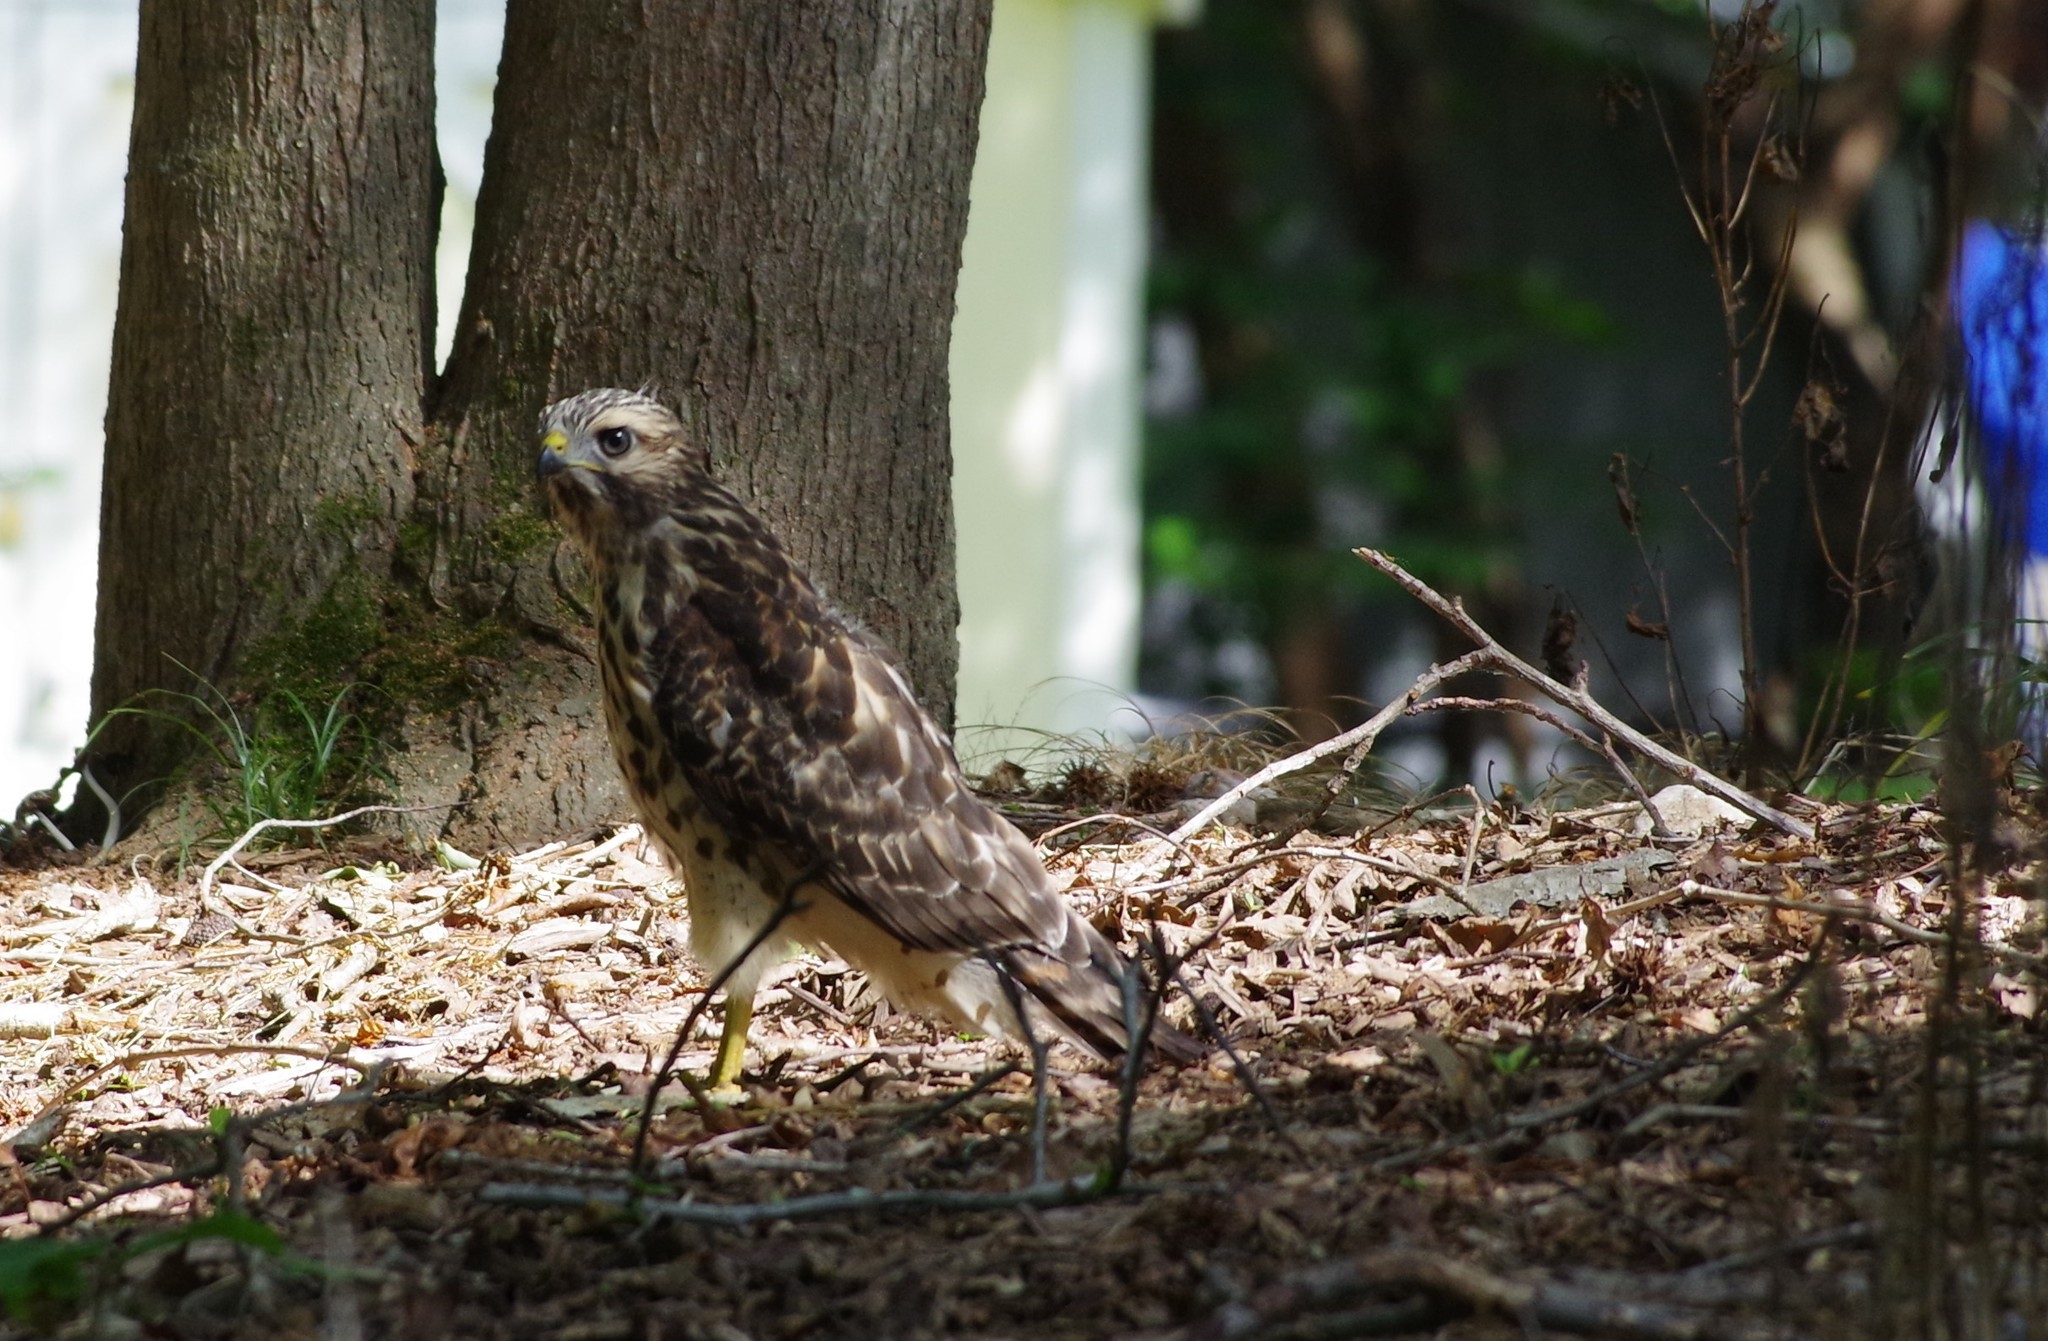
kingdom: Animalia
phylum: Chordata
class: Aves
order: Accipitriformes
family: Accipitridae
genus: Buteo
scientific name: Buteo lineatus
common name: Red-shouldered hawk
